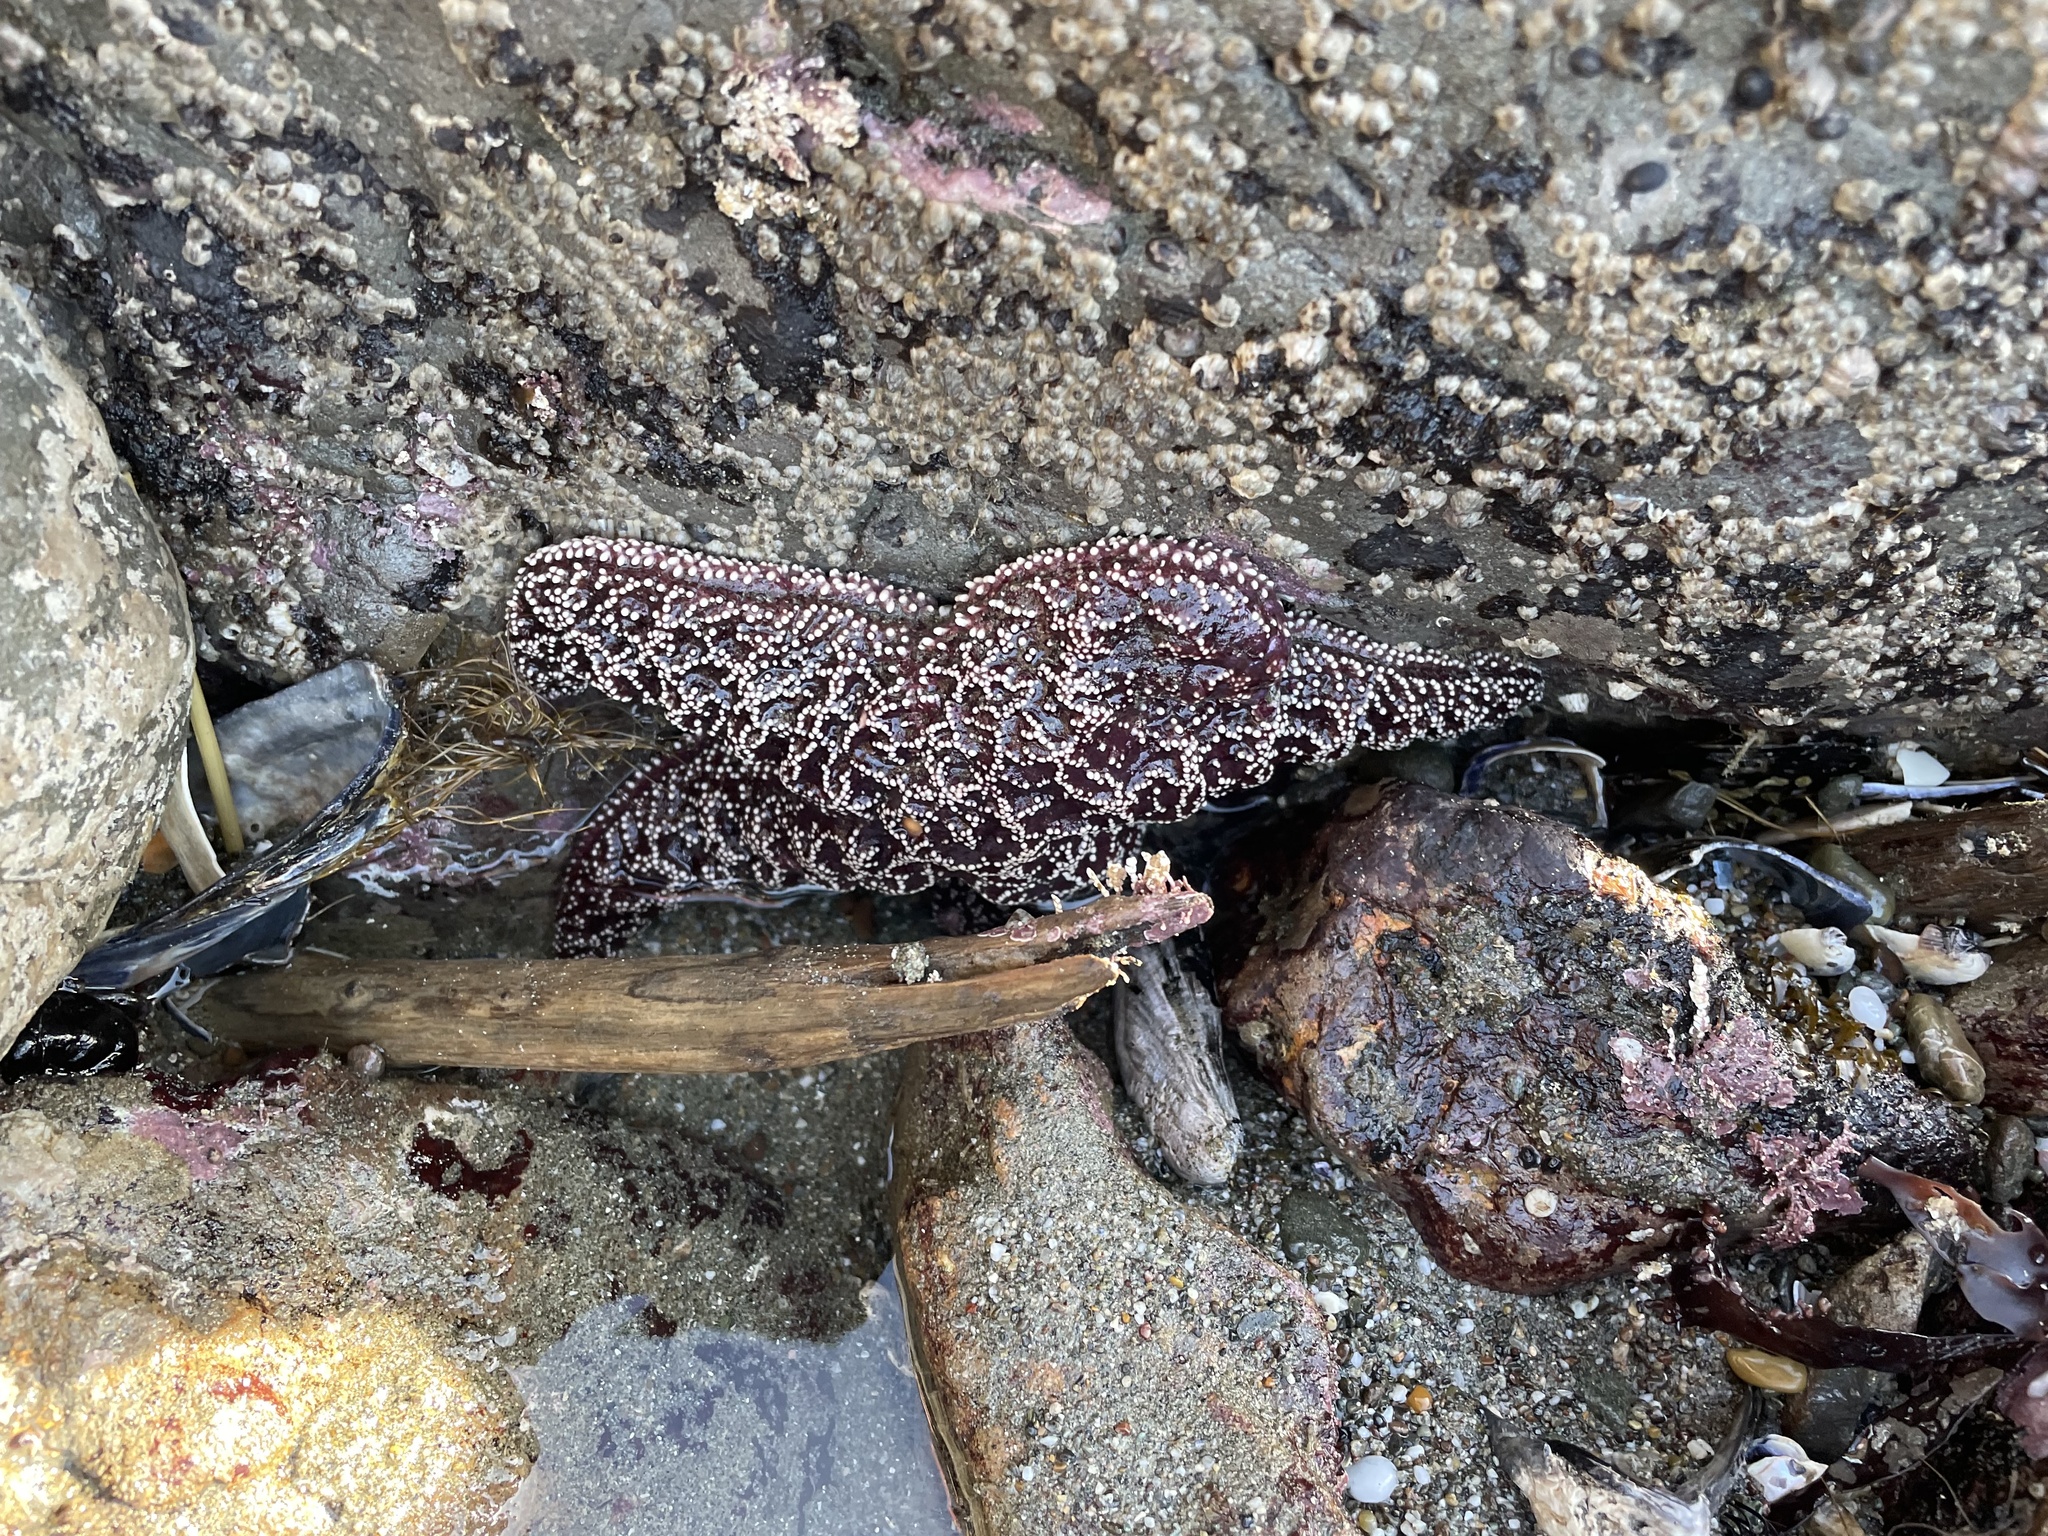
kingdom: Animalia
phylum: Echinodermata
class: Asteroidea
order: Forcipulatida
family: Asteriidae
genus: Pisaster
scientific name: Pisaster ochraceus
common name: Ochre stars
